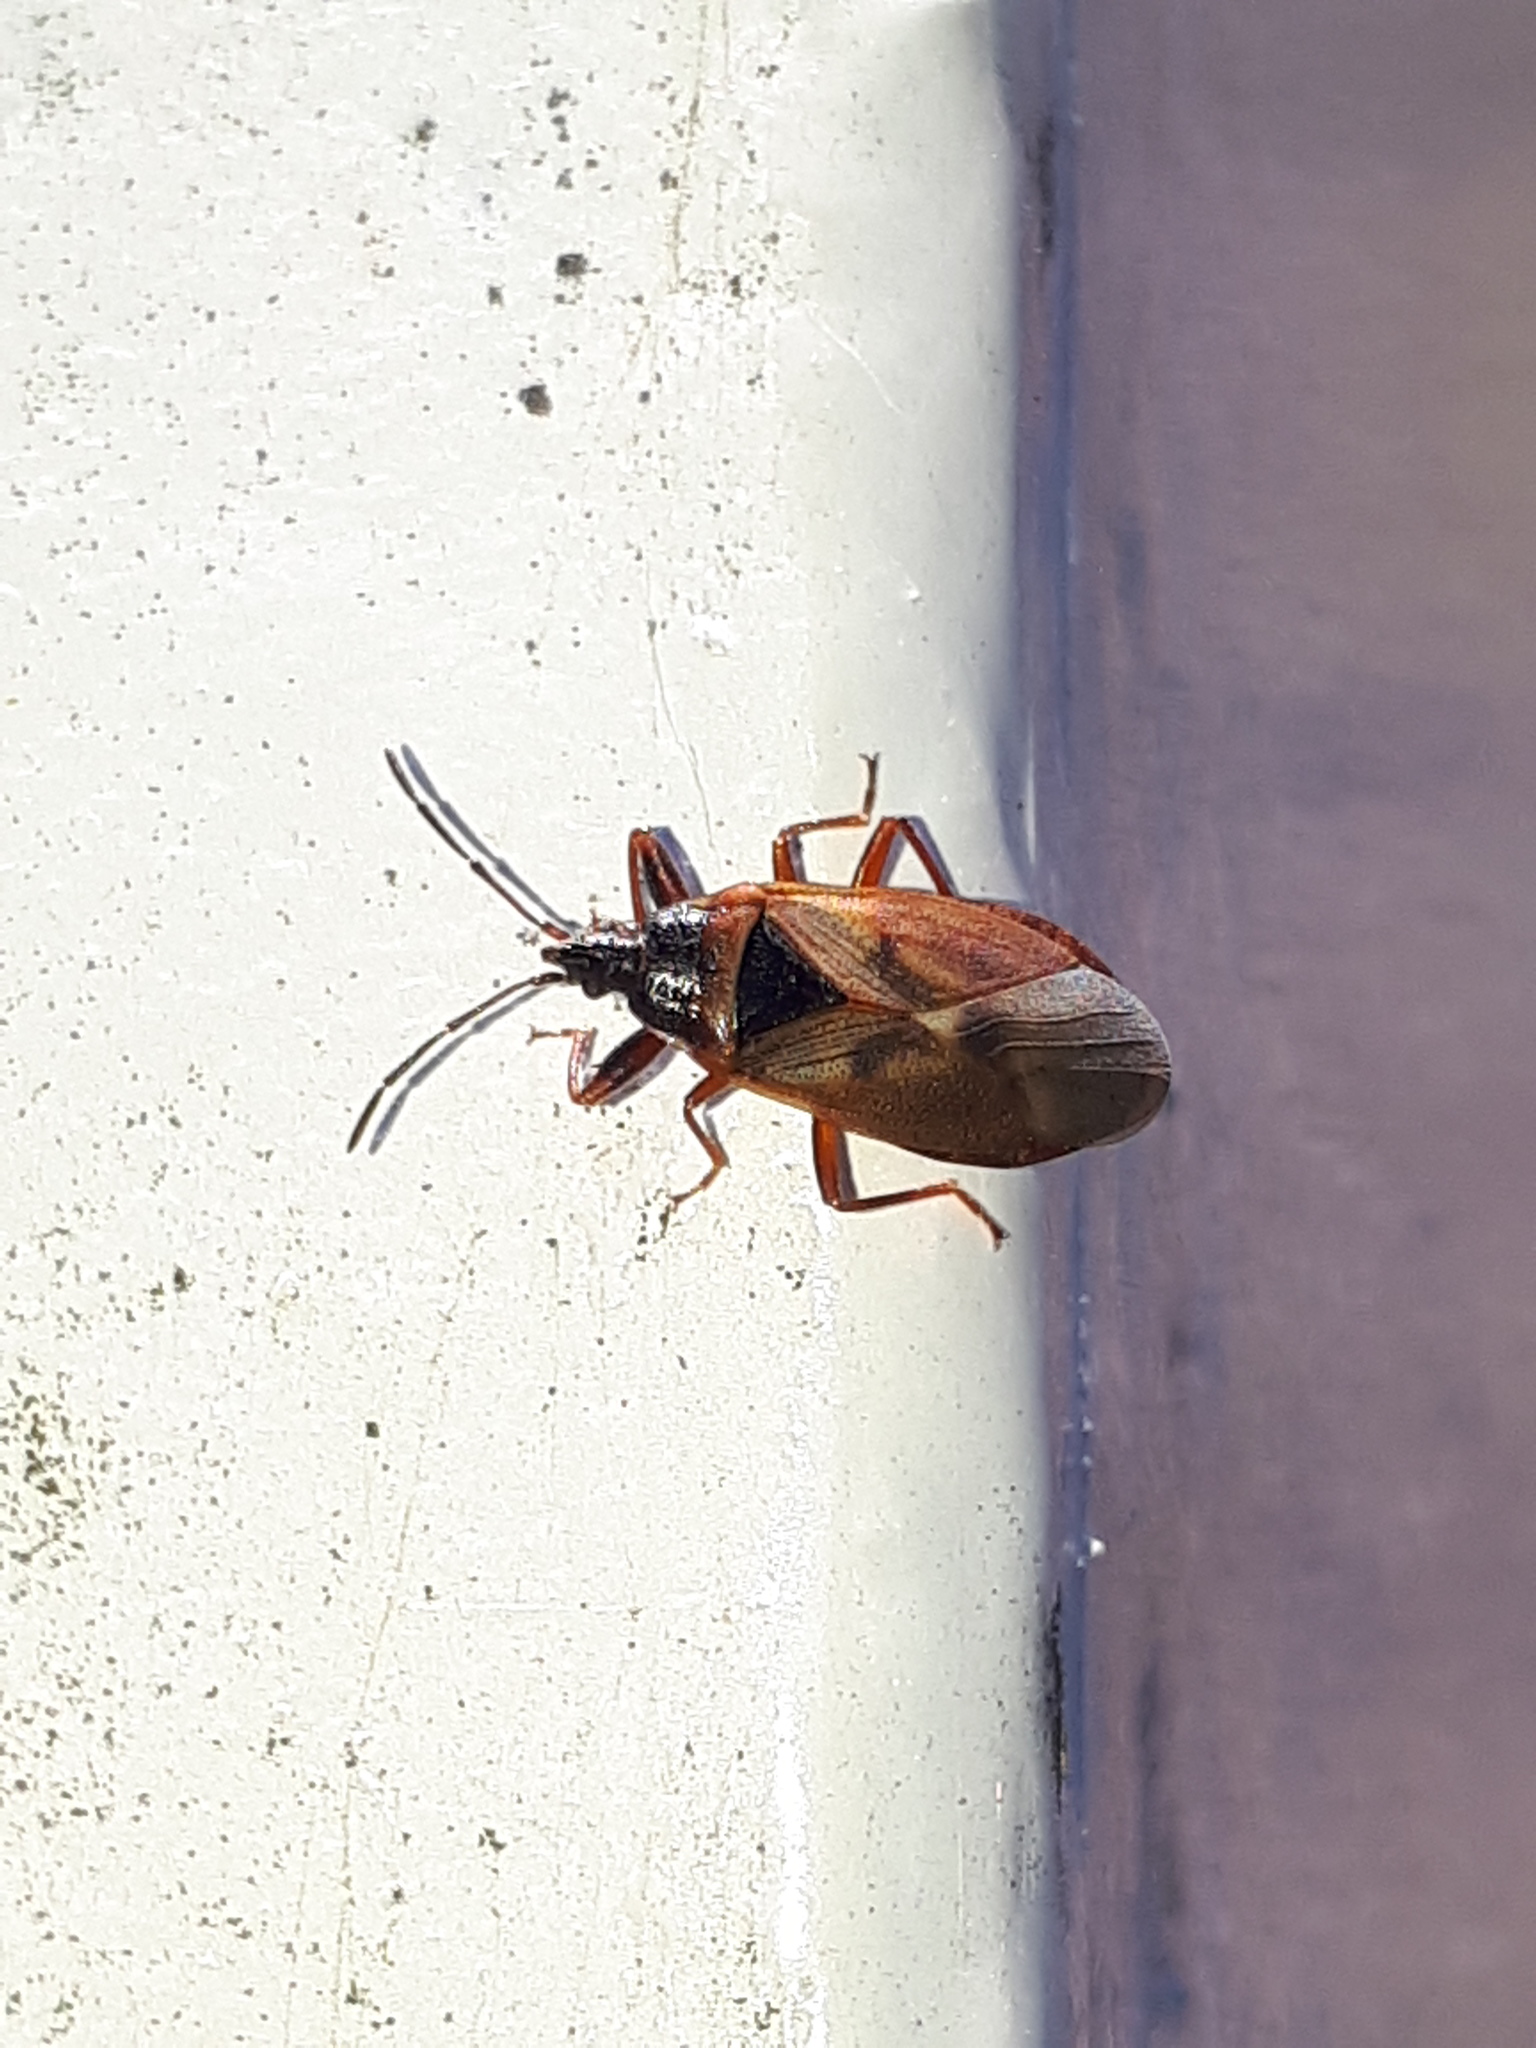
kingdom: Animalia
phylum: Arthropoda
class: Insecta
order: Hemiptera
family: Rhyparochromidae
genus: Gastrodes
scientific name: Gastrodes abietum
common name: Spruce cone bug
